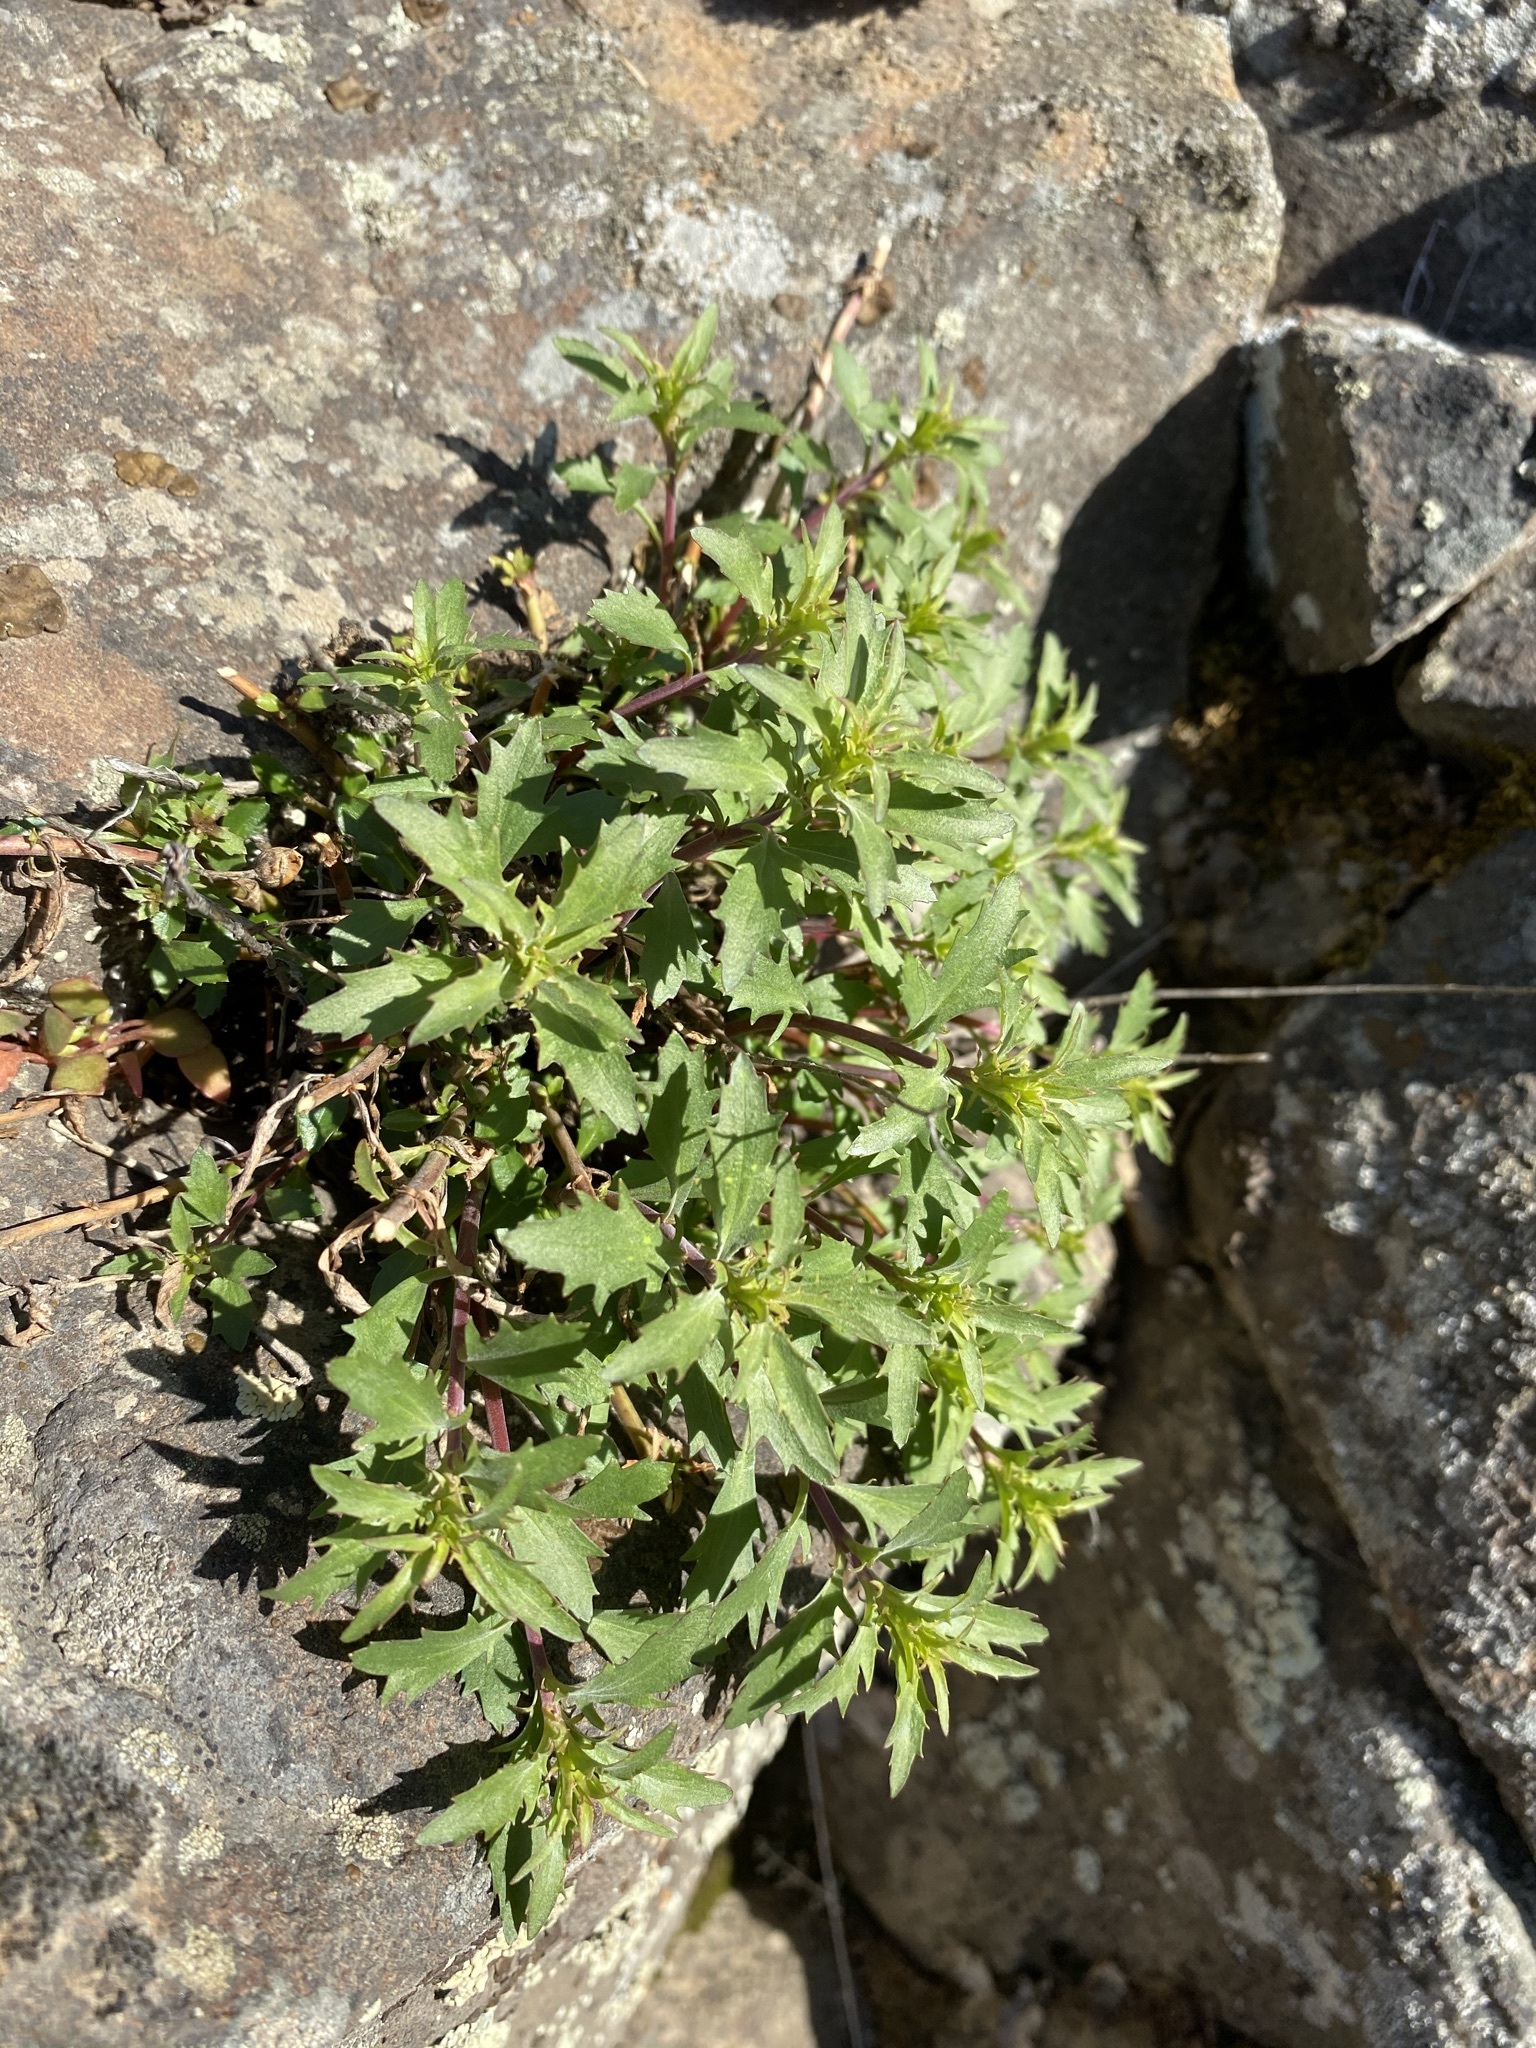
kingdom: Plantae
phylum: Tracheophyta
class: Magnoliopsida
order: Lamiales
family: Plantaginaceae
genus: Penstemon
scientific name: Penstemon richardsonii
